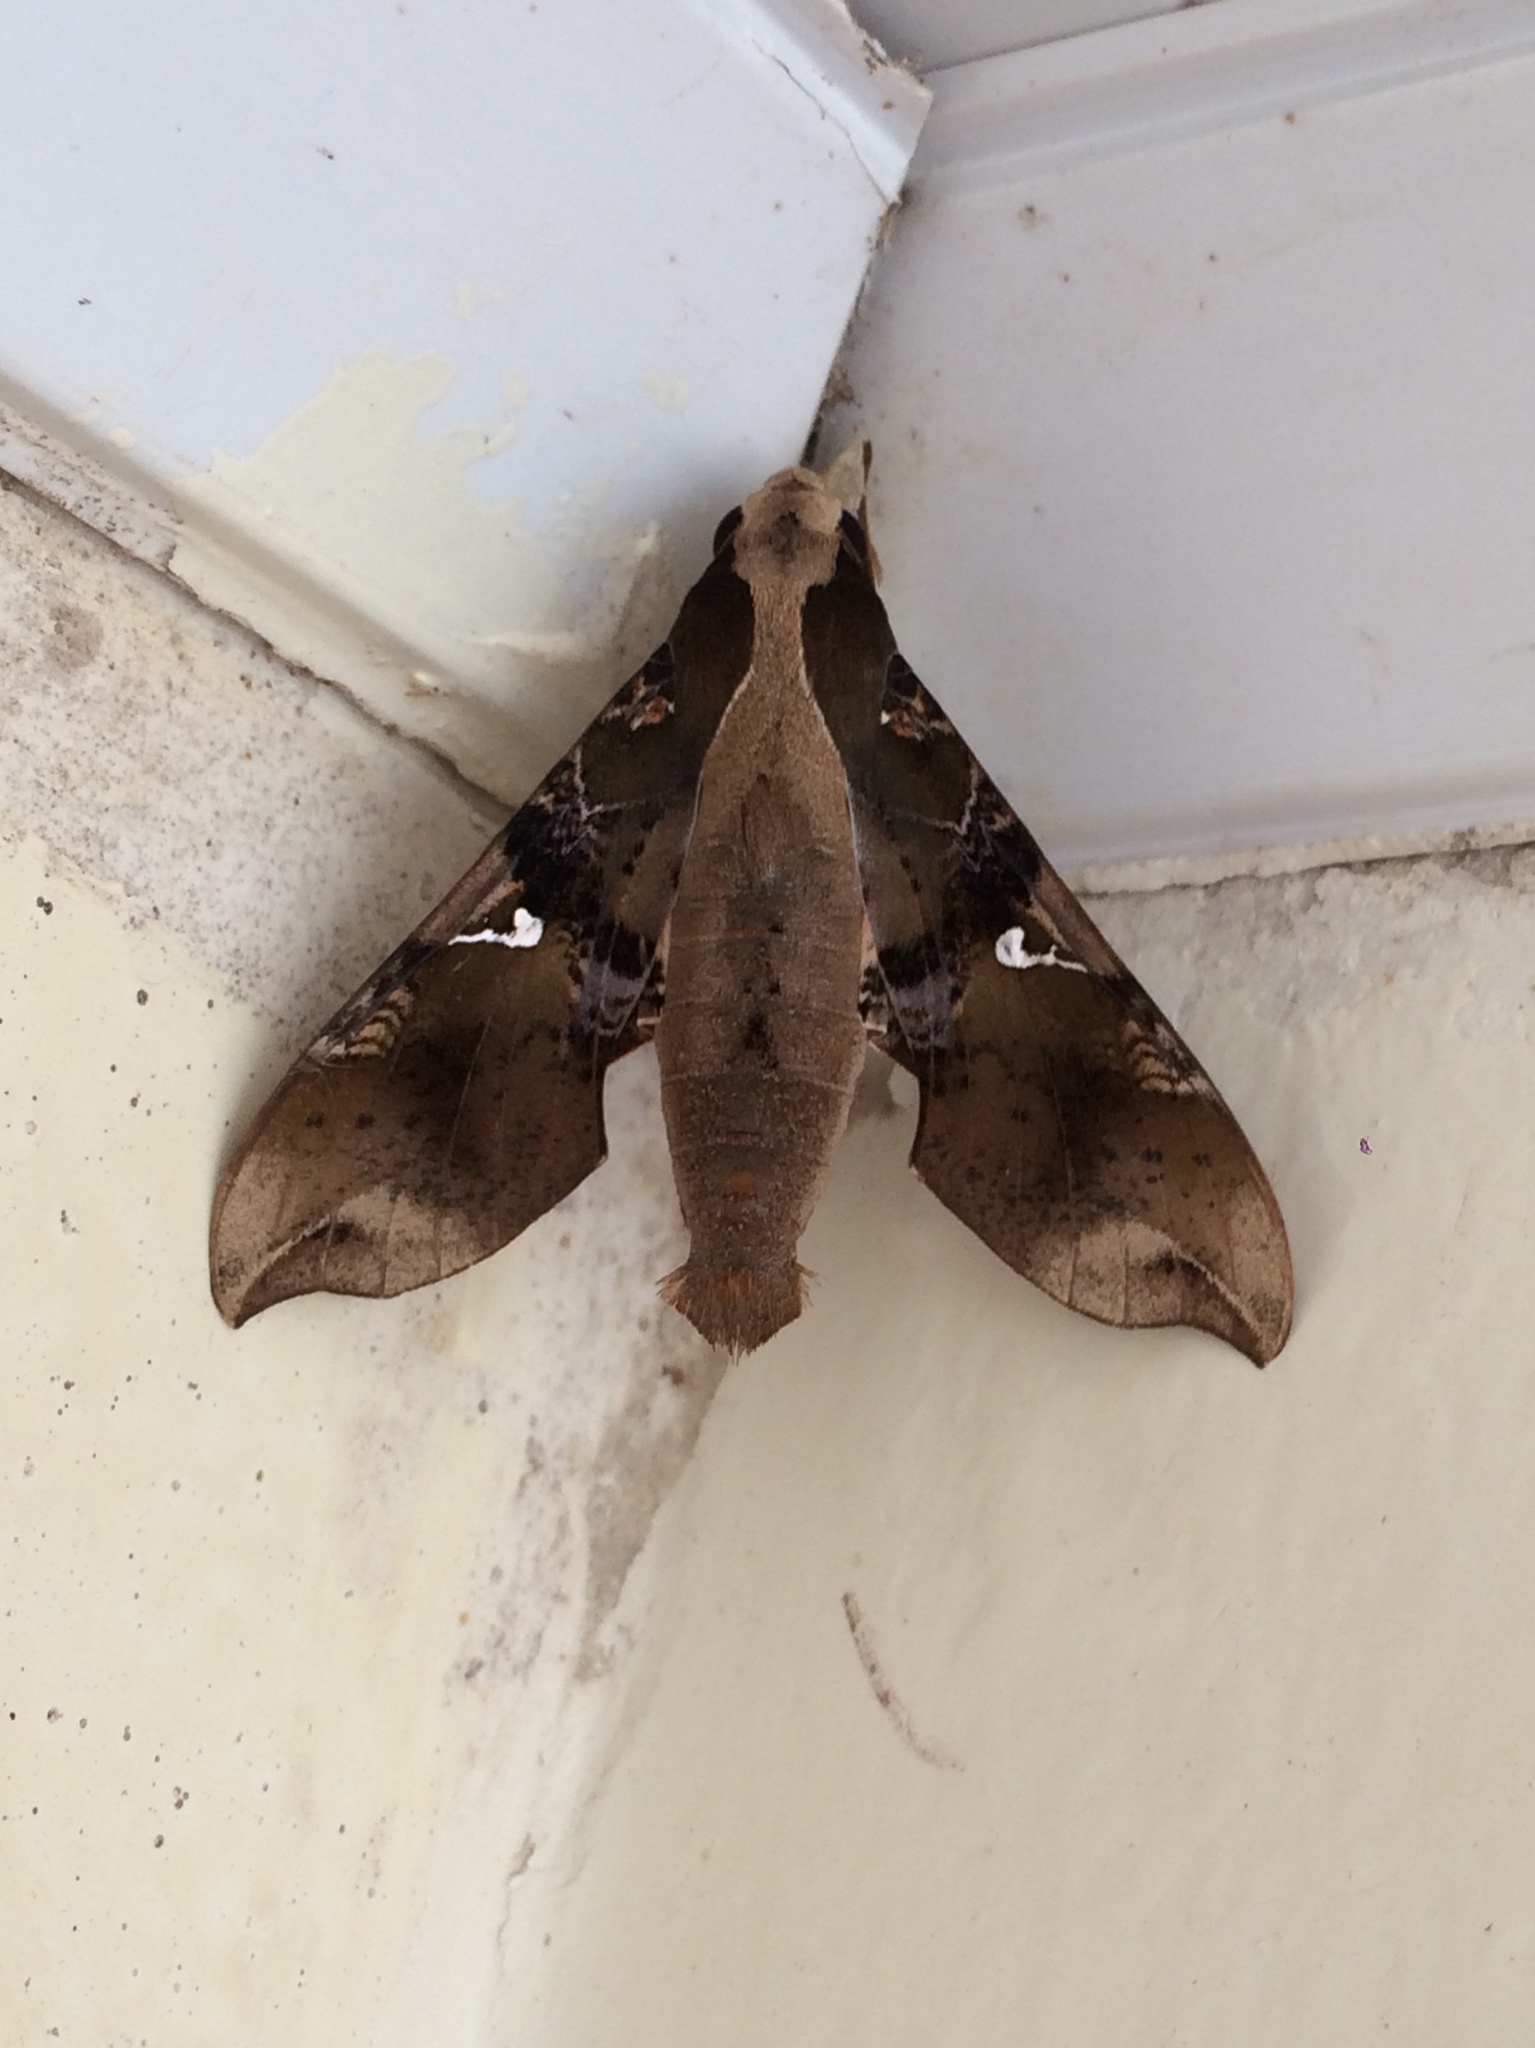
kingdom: Animalia
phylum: Arthropoda
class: Insecta
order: Lepidoptera
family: Sphingidae
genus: Callionima
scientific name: Callionima parce
